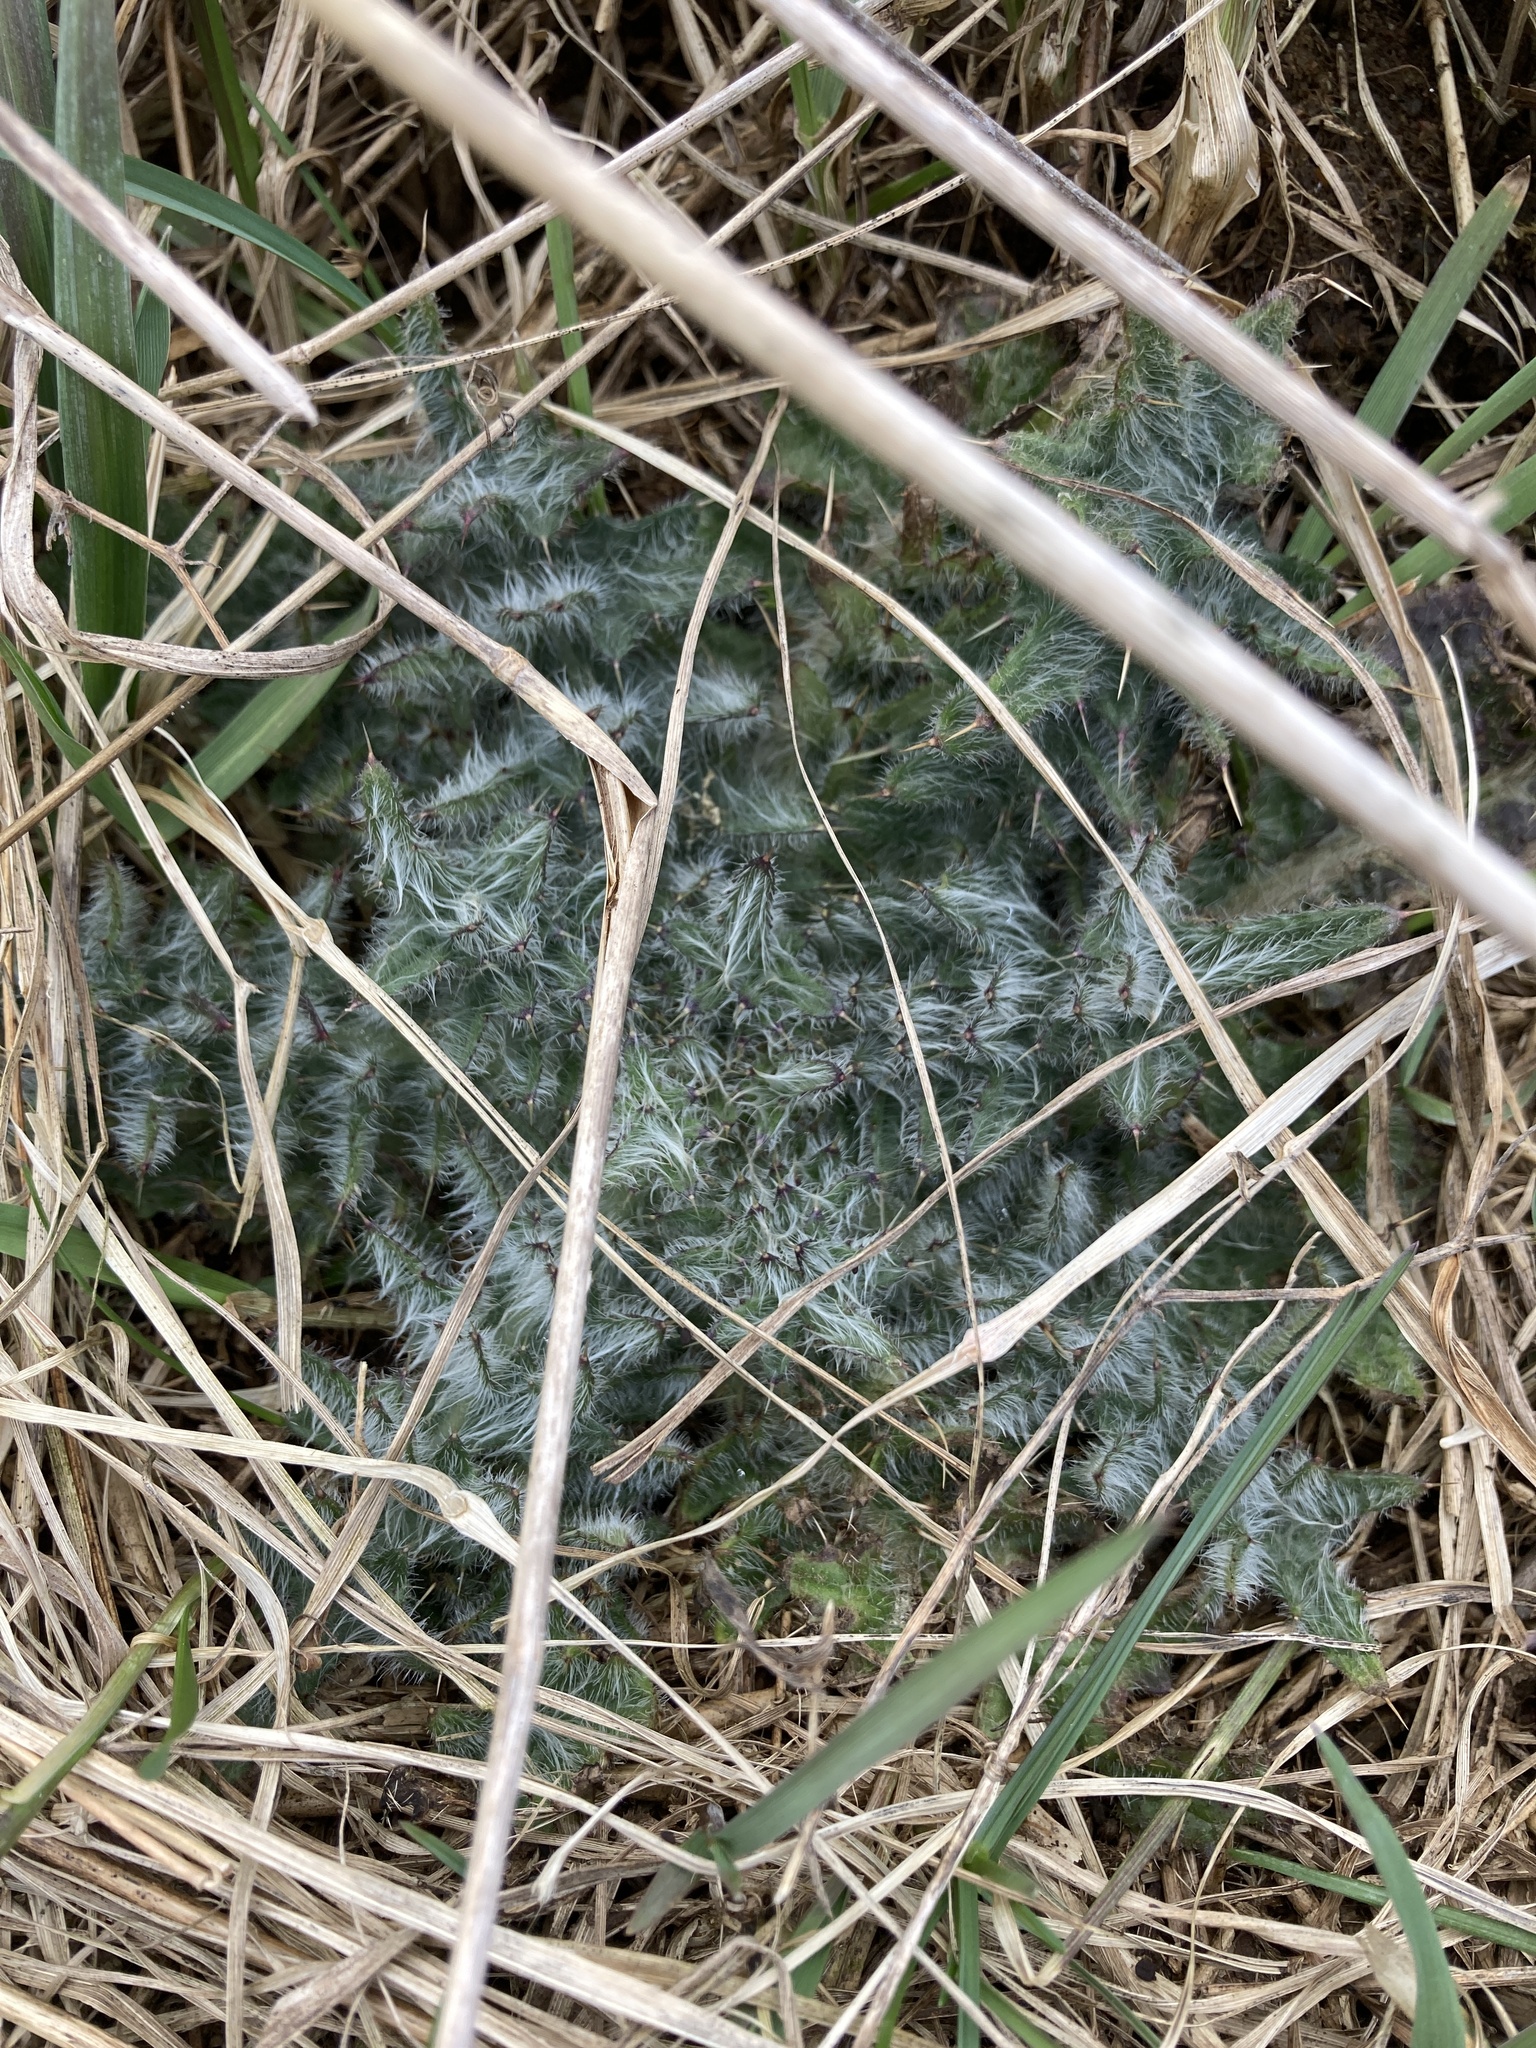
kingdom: Plantae
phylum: Tracheophyta
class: Magnoliopsida
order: Asterales
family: Asteraceae
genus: Cirsium
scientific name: Cirsium vulgare
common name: Bull thistle
